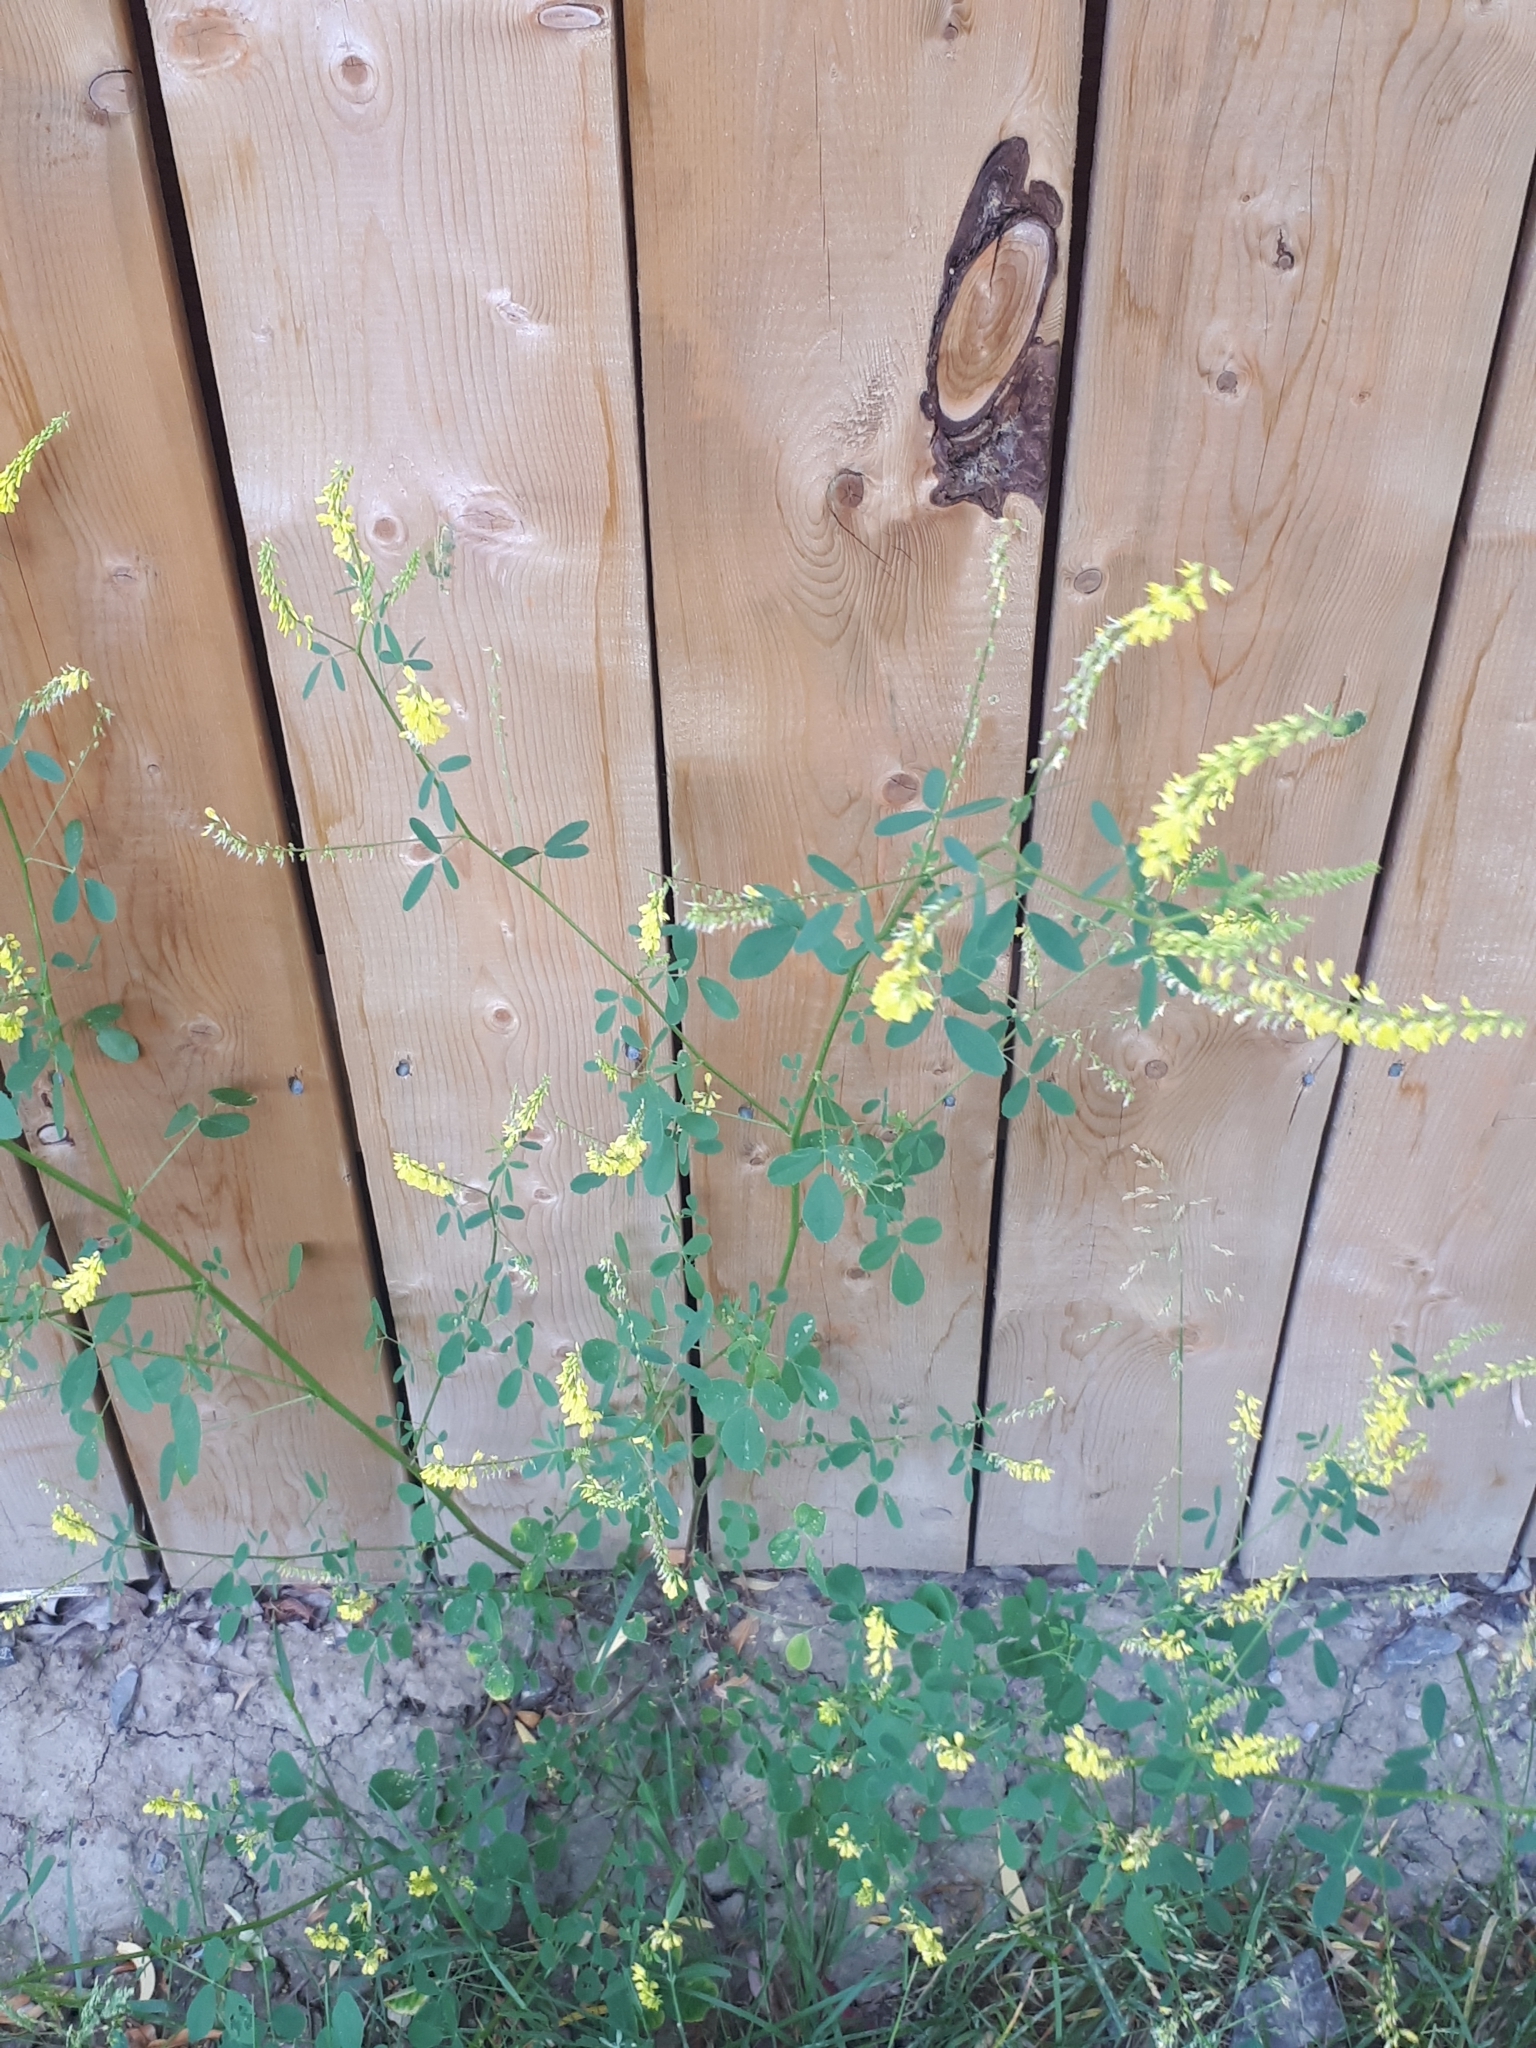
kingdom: Plantae
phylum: Tracheophyta
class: Magnoliopsida
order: Fabales
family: Fabaceae
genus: Melilotus
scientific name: Melilotus officinalis
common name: Sweetclover
